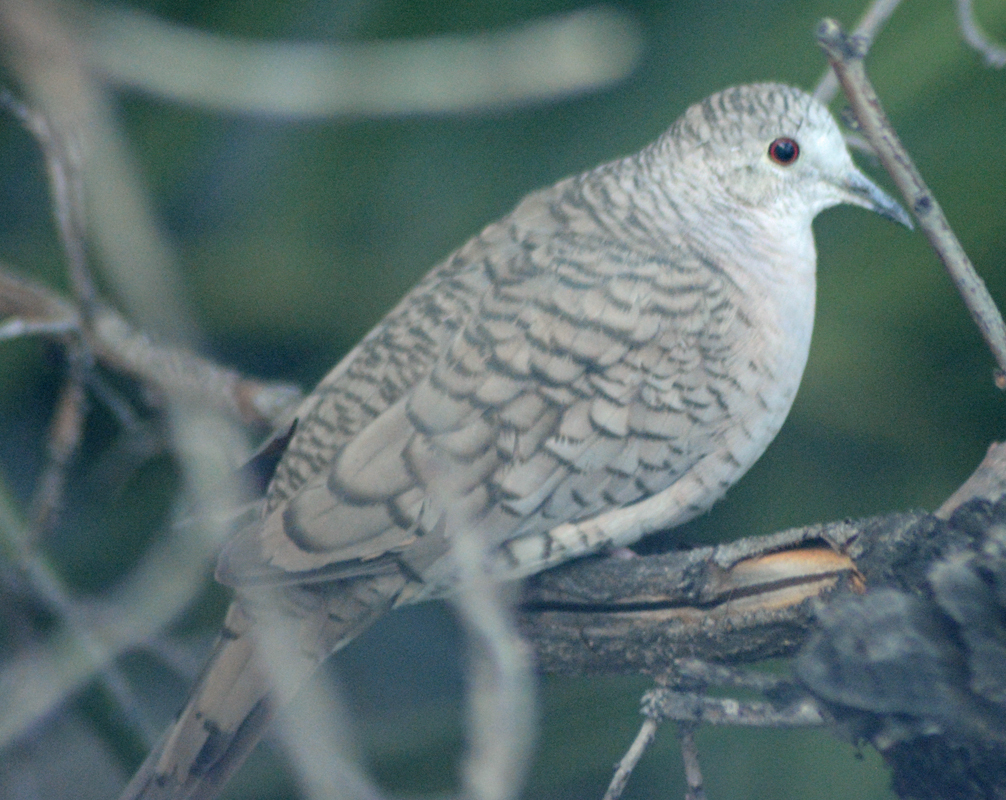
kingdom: Animalia
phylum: Chordata
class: Aves
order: Columbiformes
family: Columbidae
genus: Columbina
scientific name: Columbina inca
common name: Inca dove
